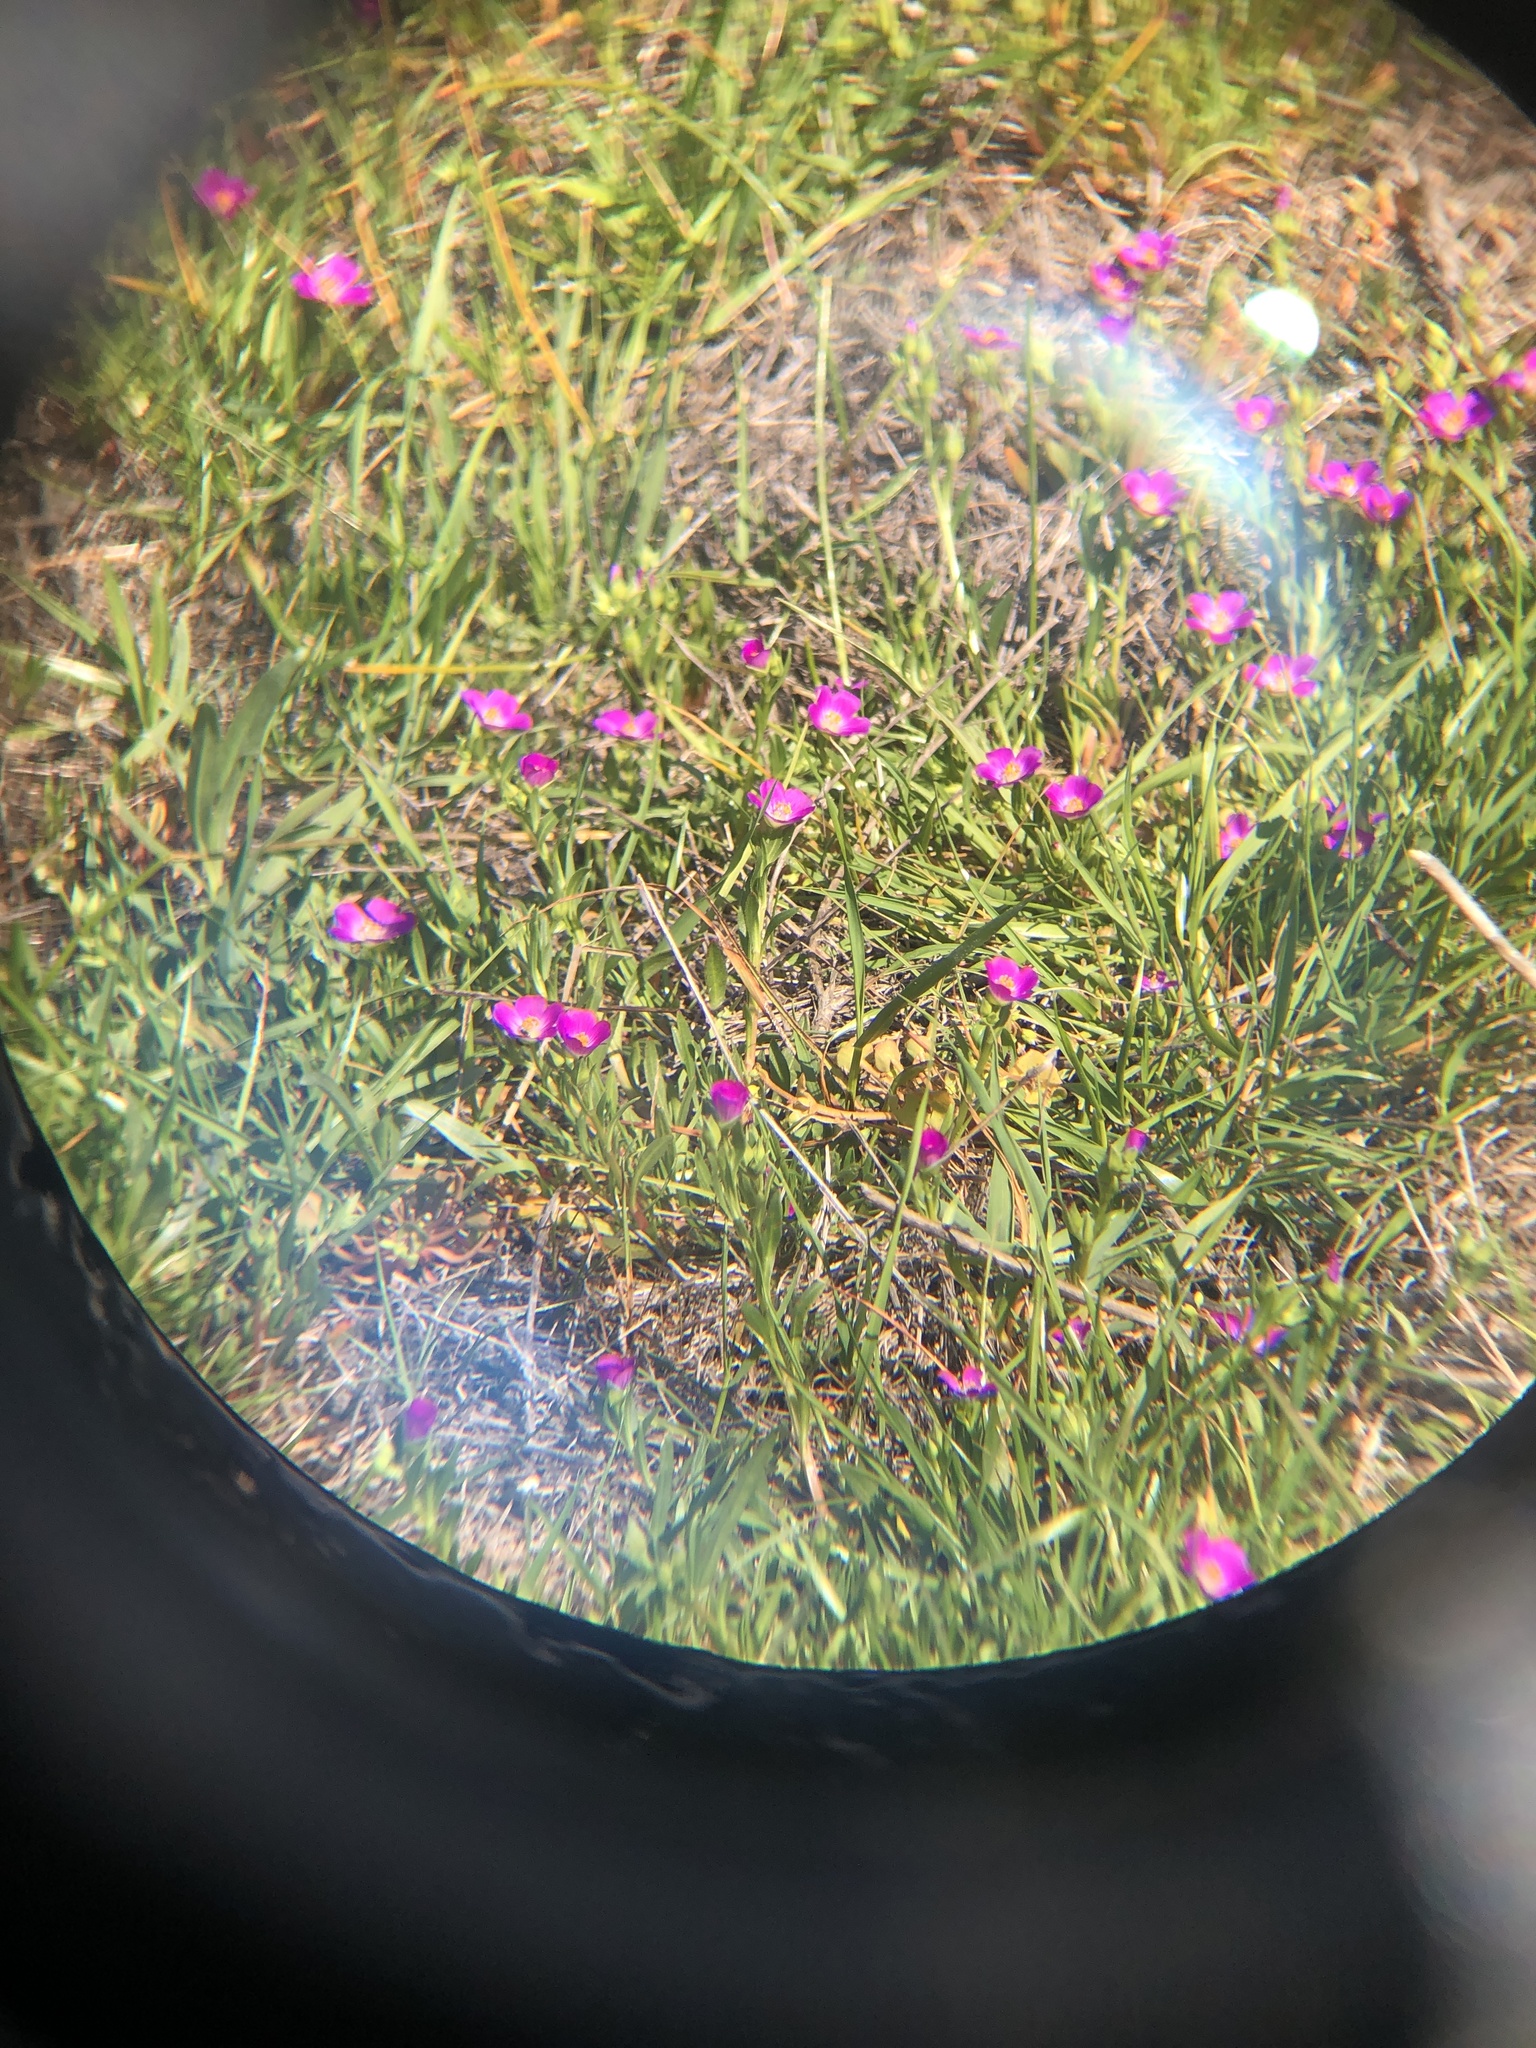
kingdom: Plantae
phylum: Tracheophyta
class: Magnoliopsida
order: Caryophyllales
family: Montiaceae
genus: Calandrinia
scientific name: Calandrinia menziesii
